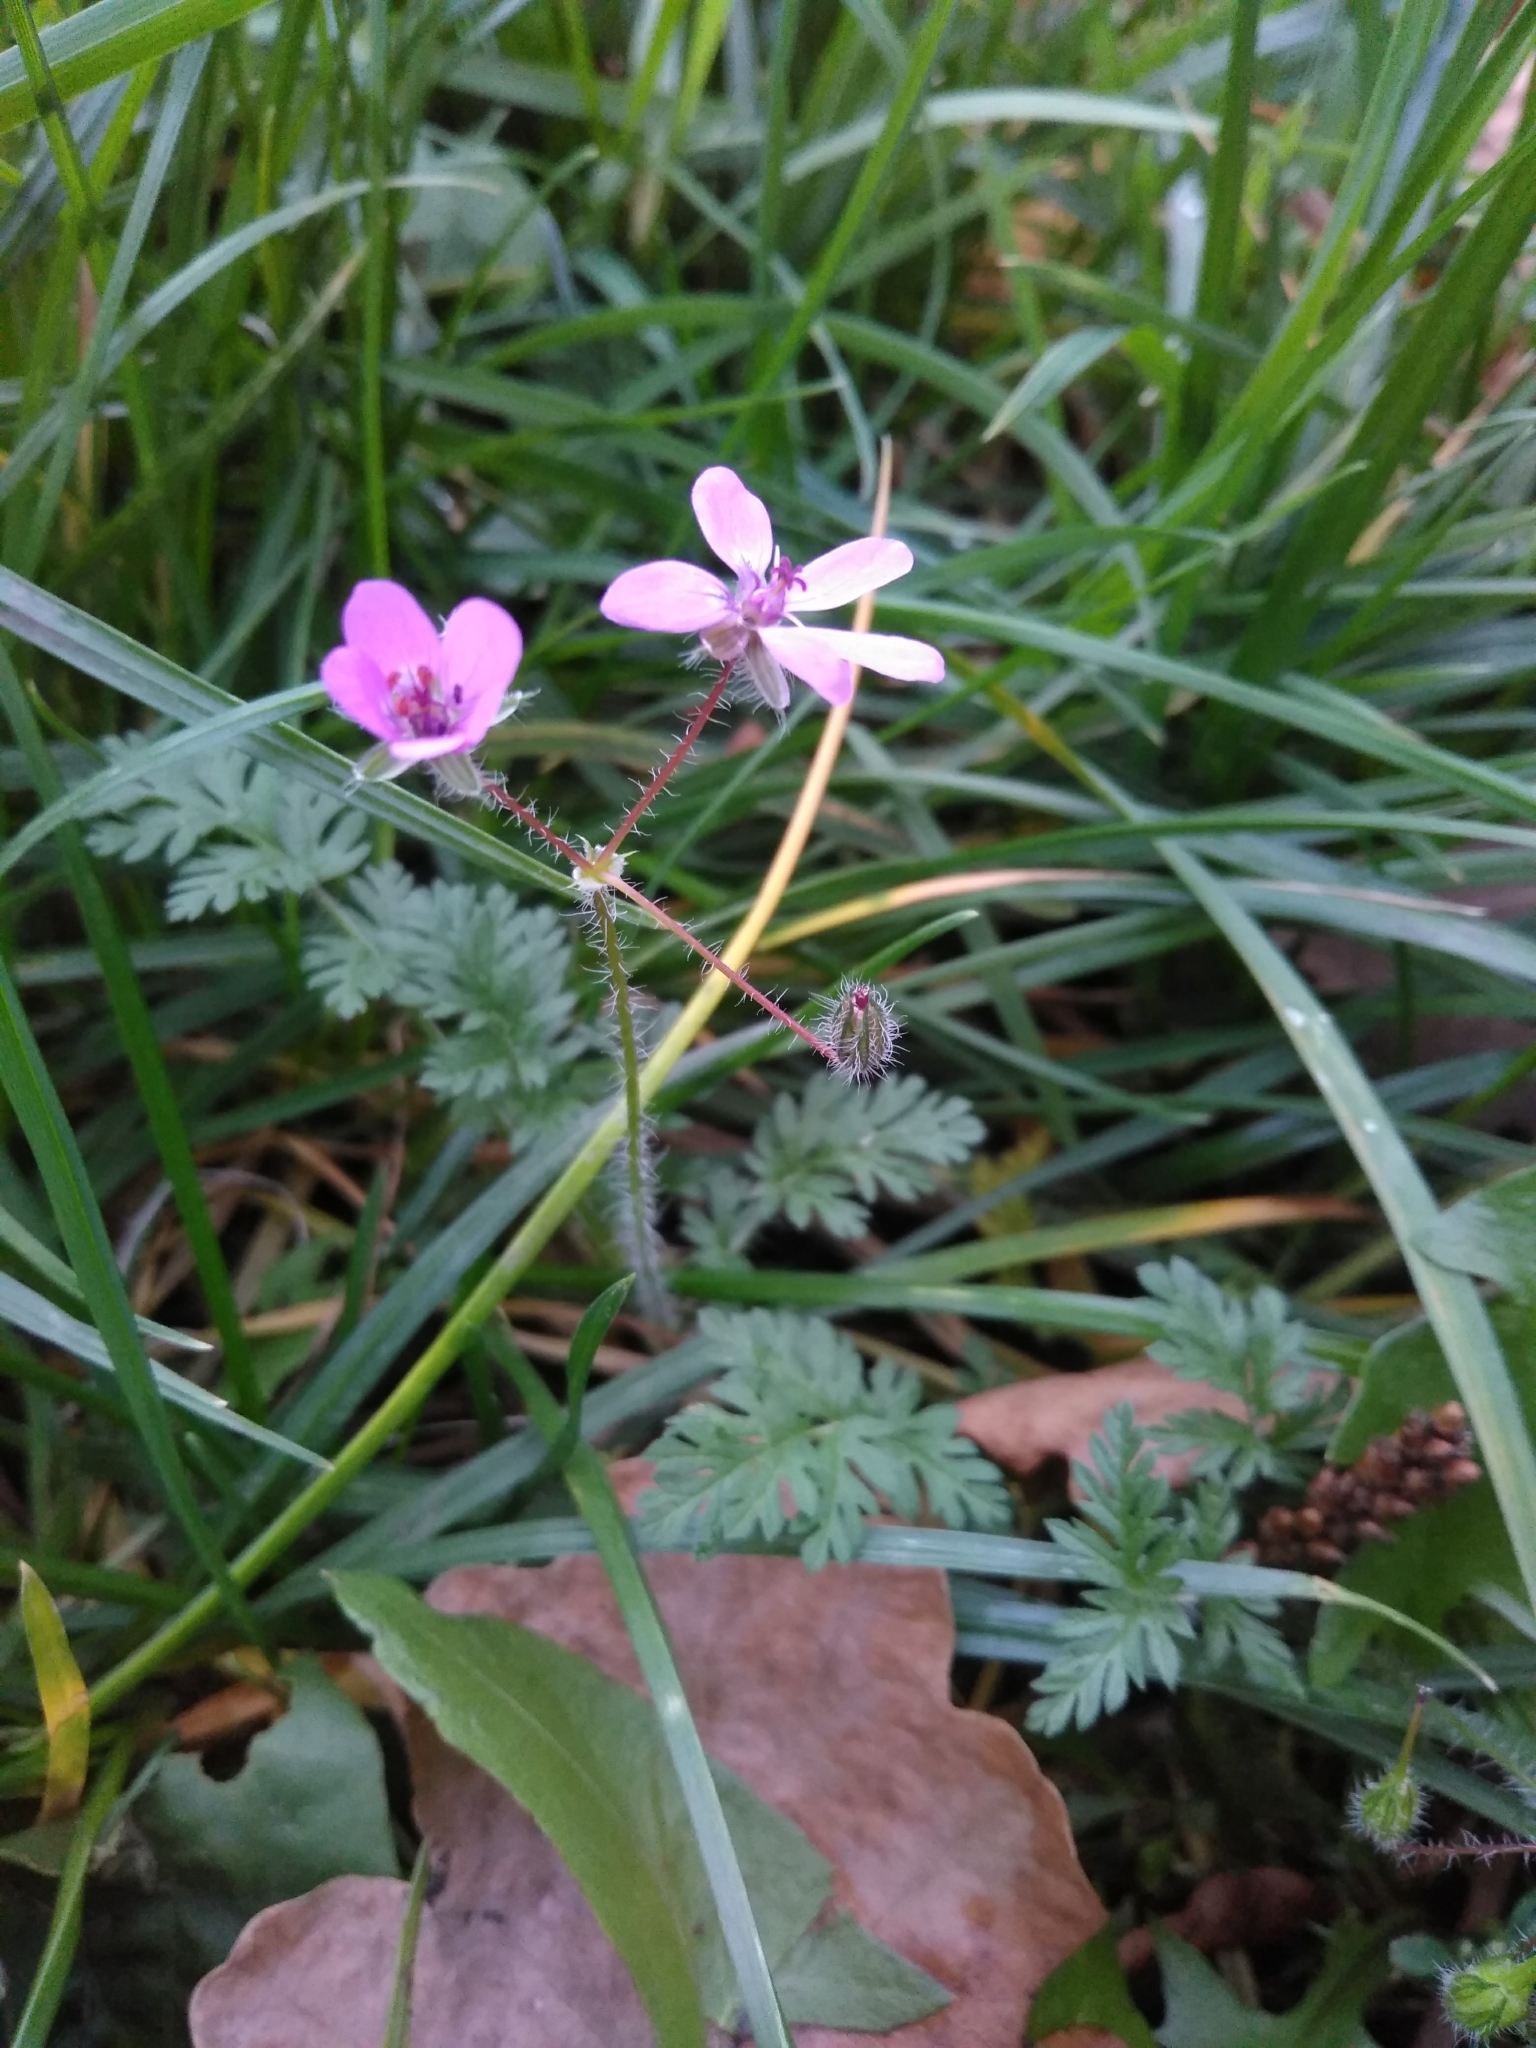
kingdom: Plantae
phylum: Tracheophyta
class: Magnoliopsida
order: Geraniales
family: Geraniaceae
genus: Erodium
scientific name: Erodium cicutarium
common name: Common stork's-bill
